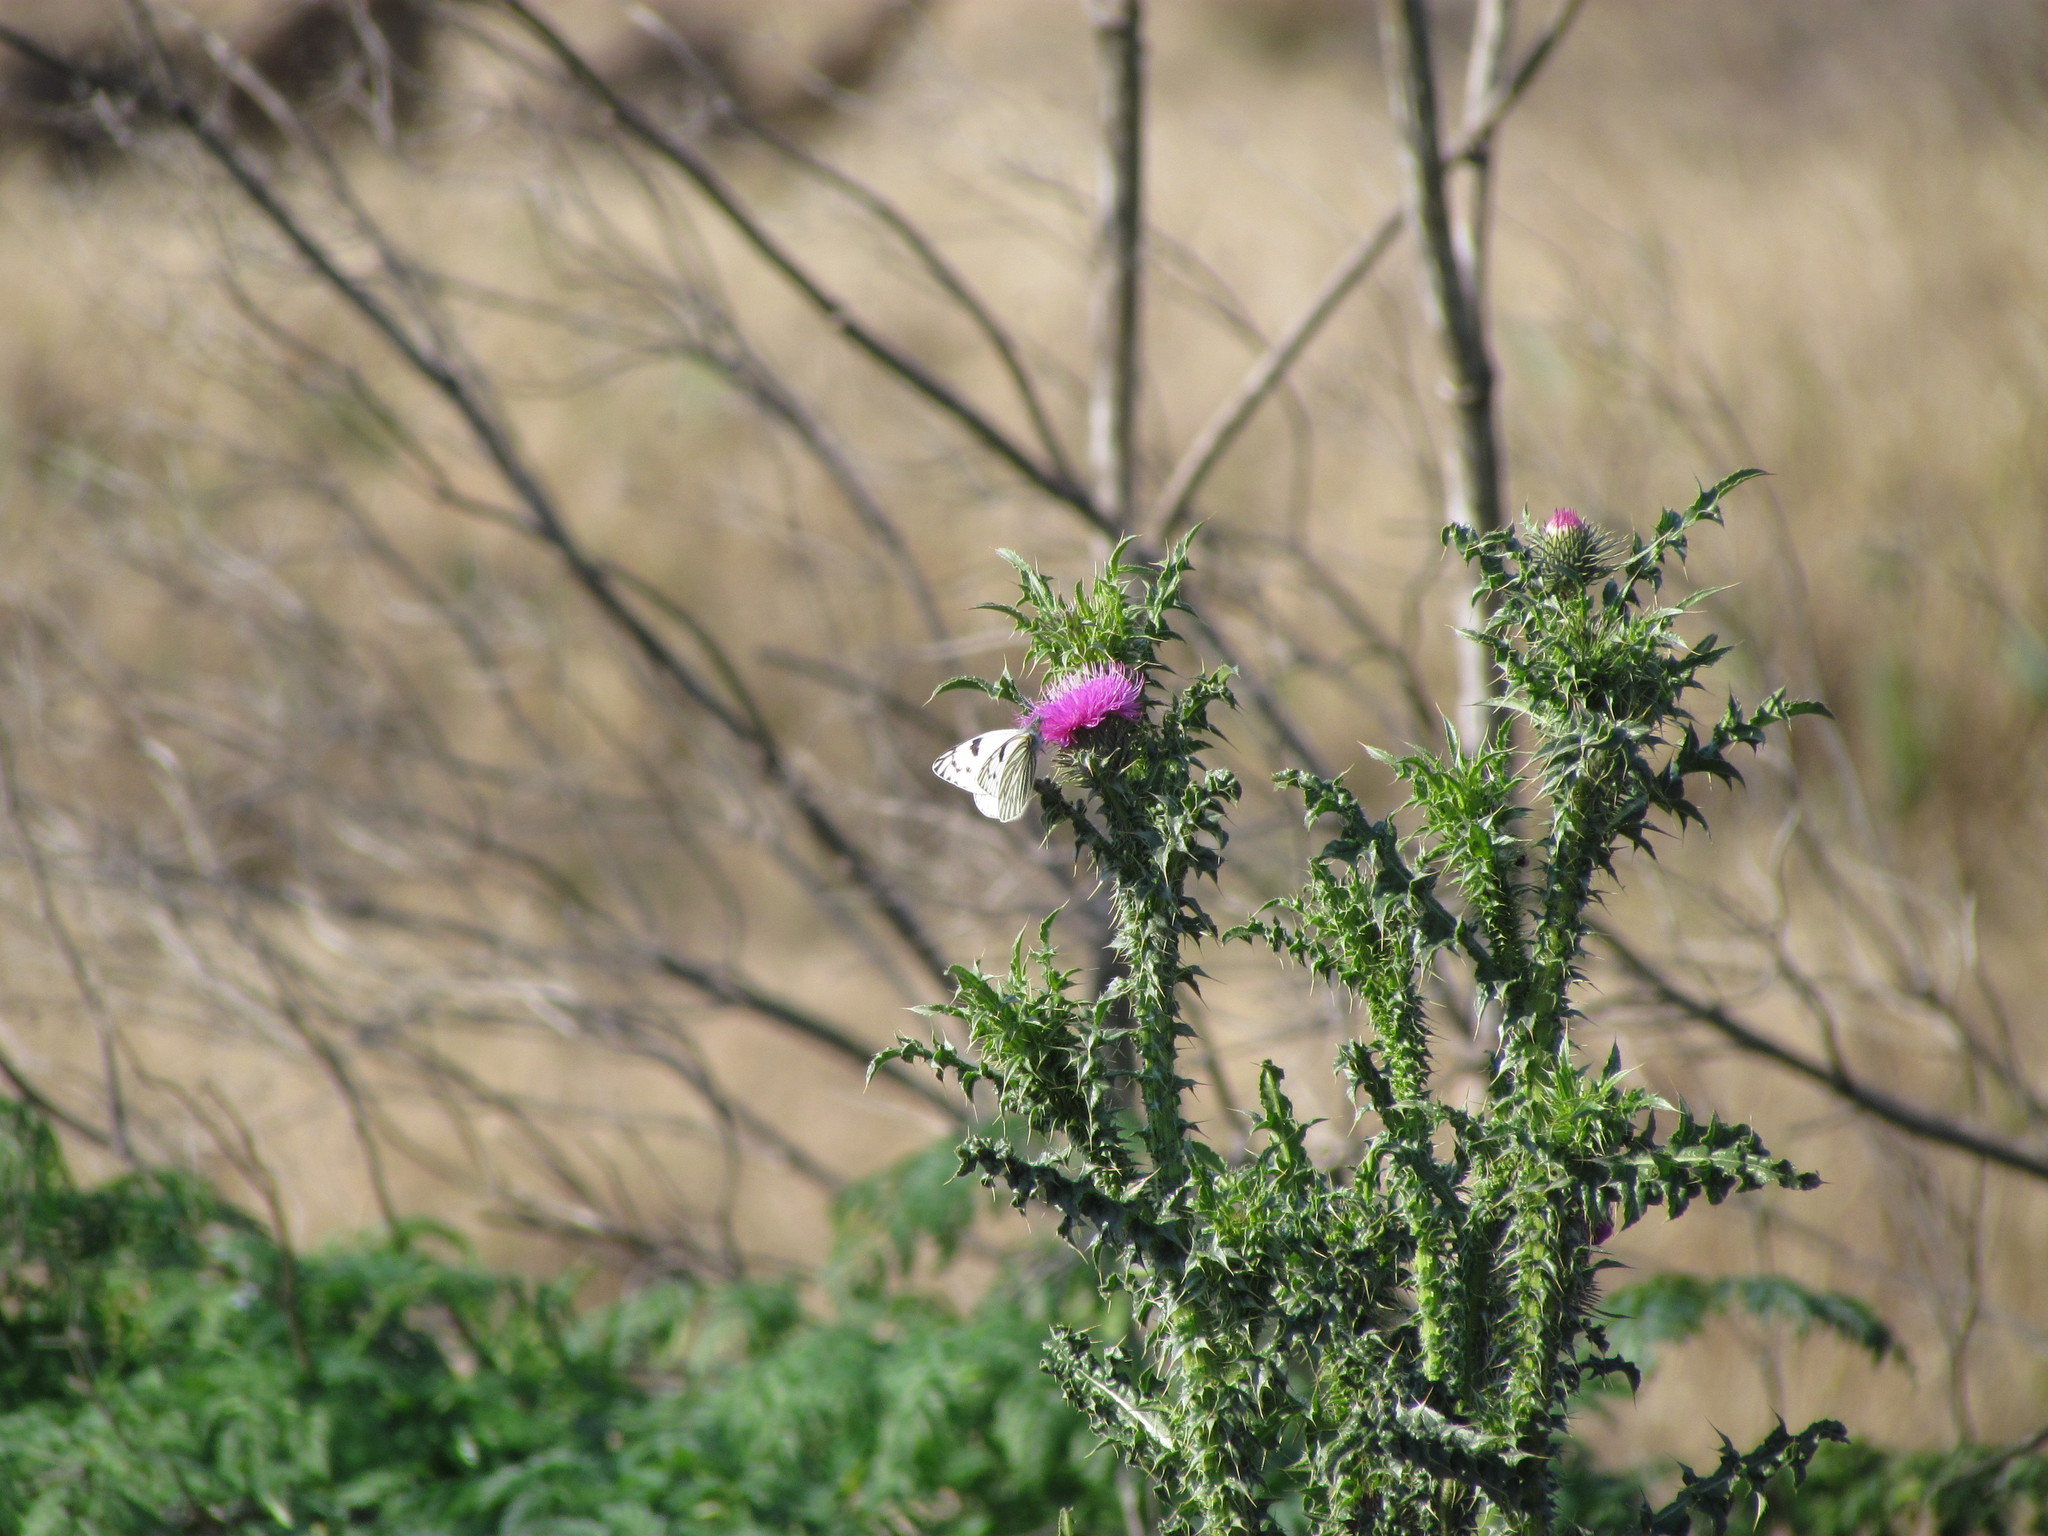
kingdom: Animalia
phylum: Arthropoda
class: Insecta
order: Lepidoptera
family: Pieridae
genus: Tatochila
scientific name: Tatochila mercedis
